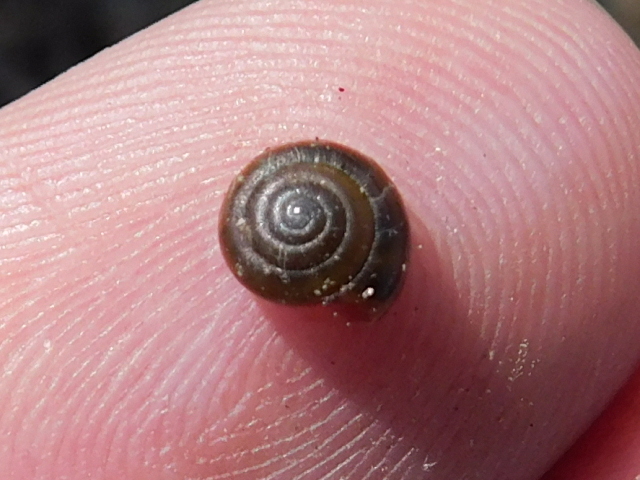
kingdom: Animalia
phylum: Mollusca
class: Gastropoda
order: Stylommatophora
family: Gastrodontidae
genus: Zonitoides
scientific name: Zonitoides arboreus
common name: Quick gloss
